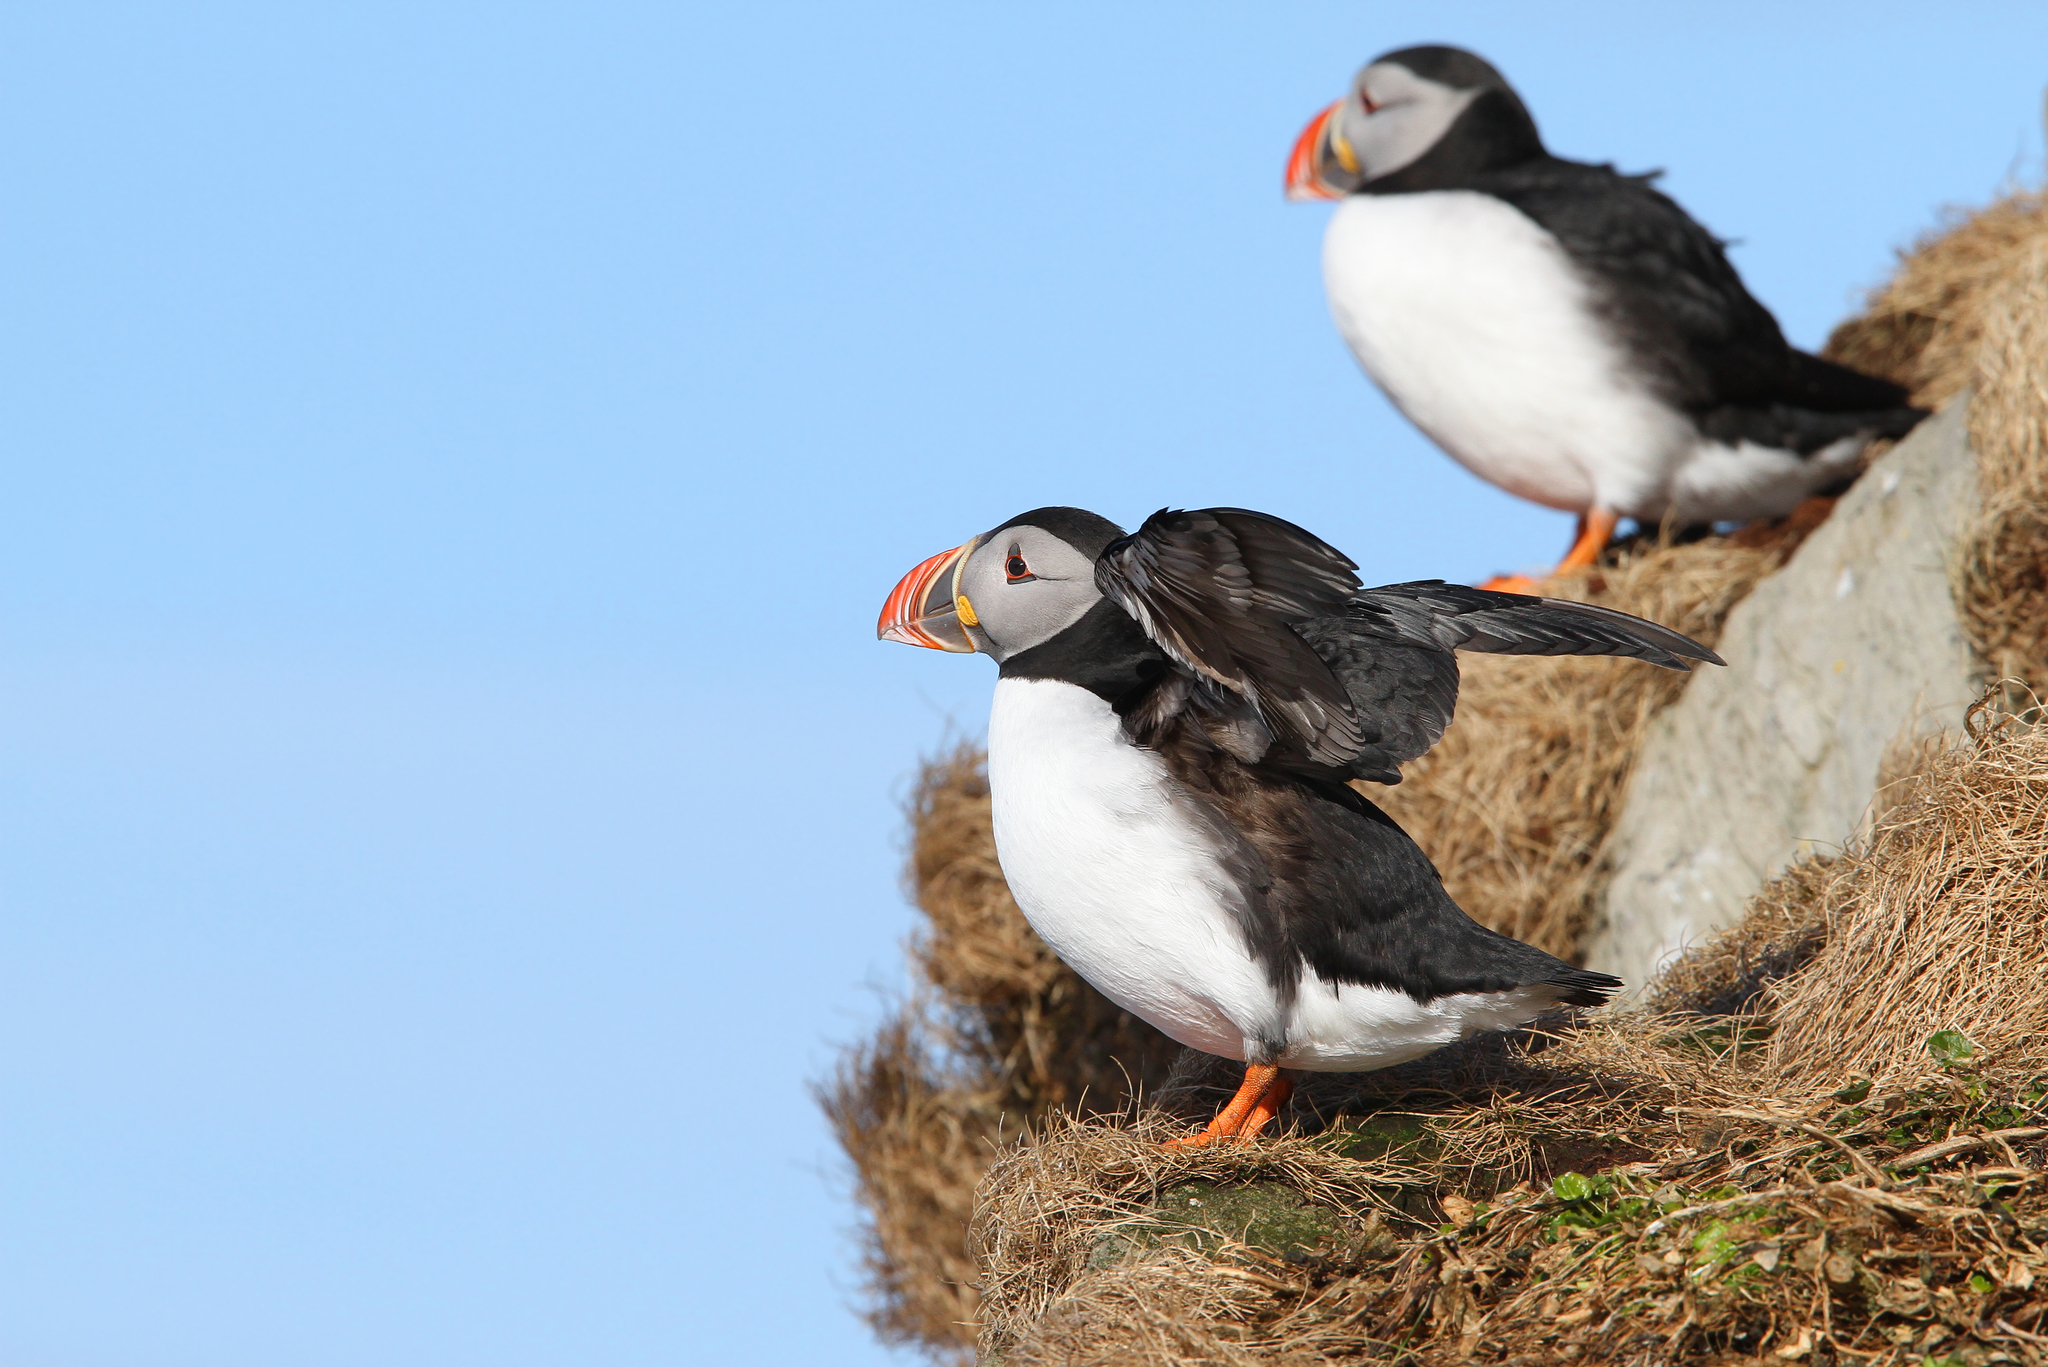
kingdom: Animalia
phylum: Chordata
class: Aves
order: Charadriiformes
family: Alcidae
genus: Fratercula
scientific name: Fratercula arctica
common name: Atlantic puffin
